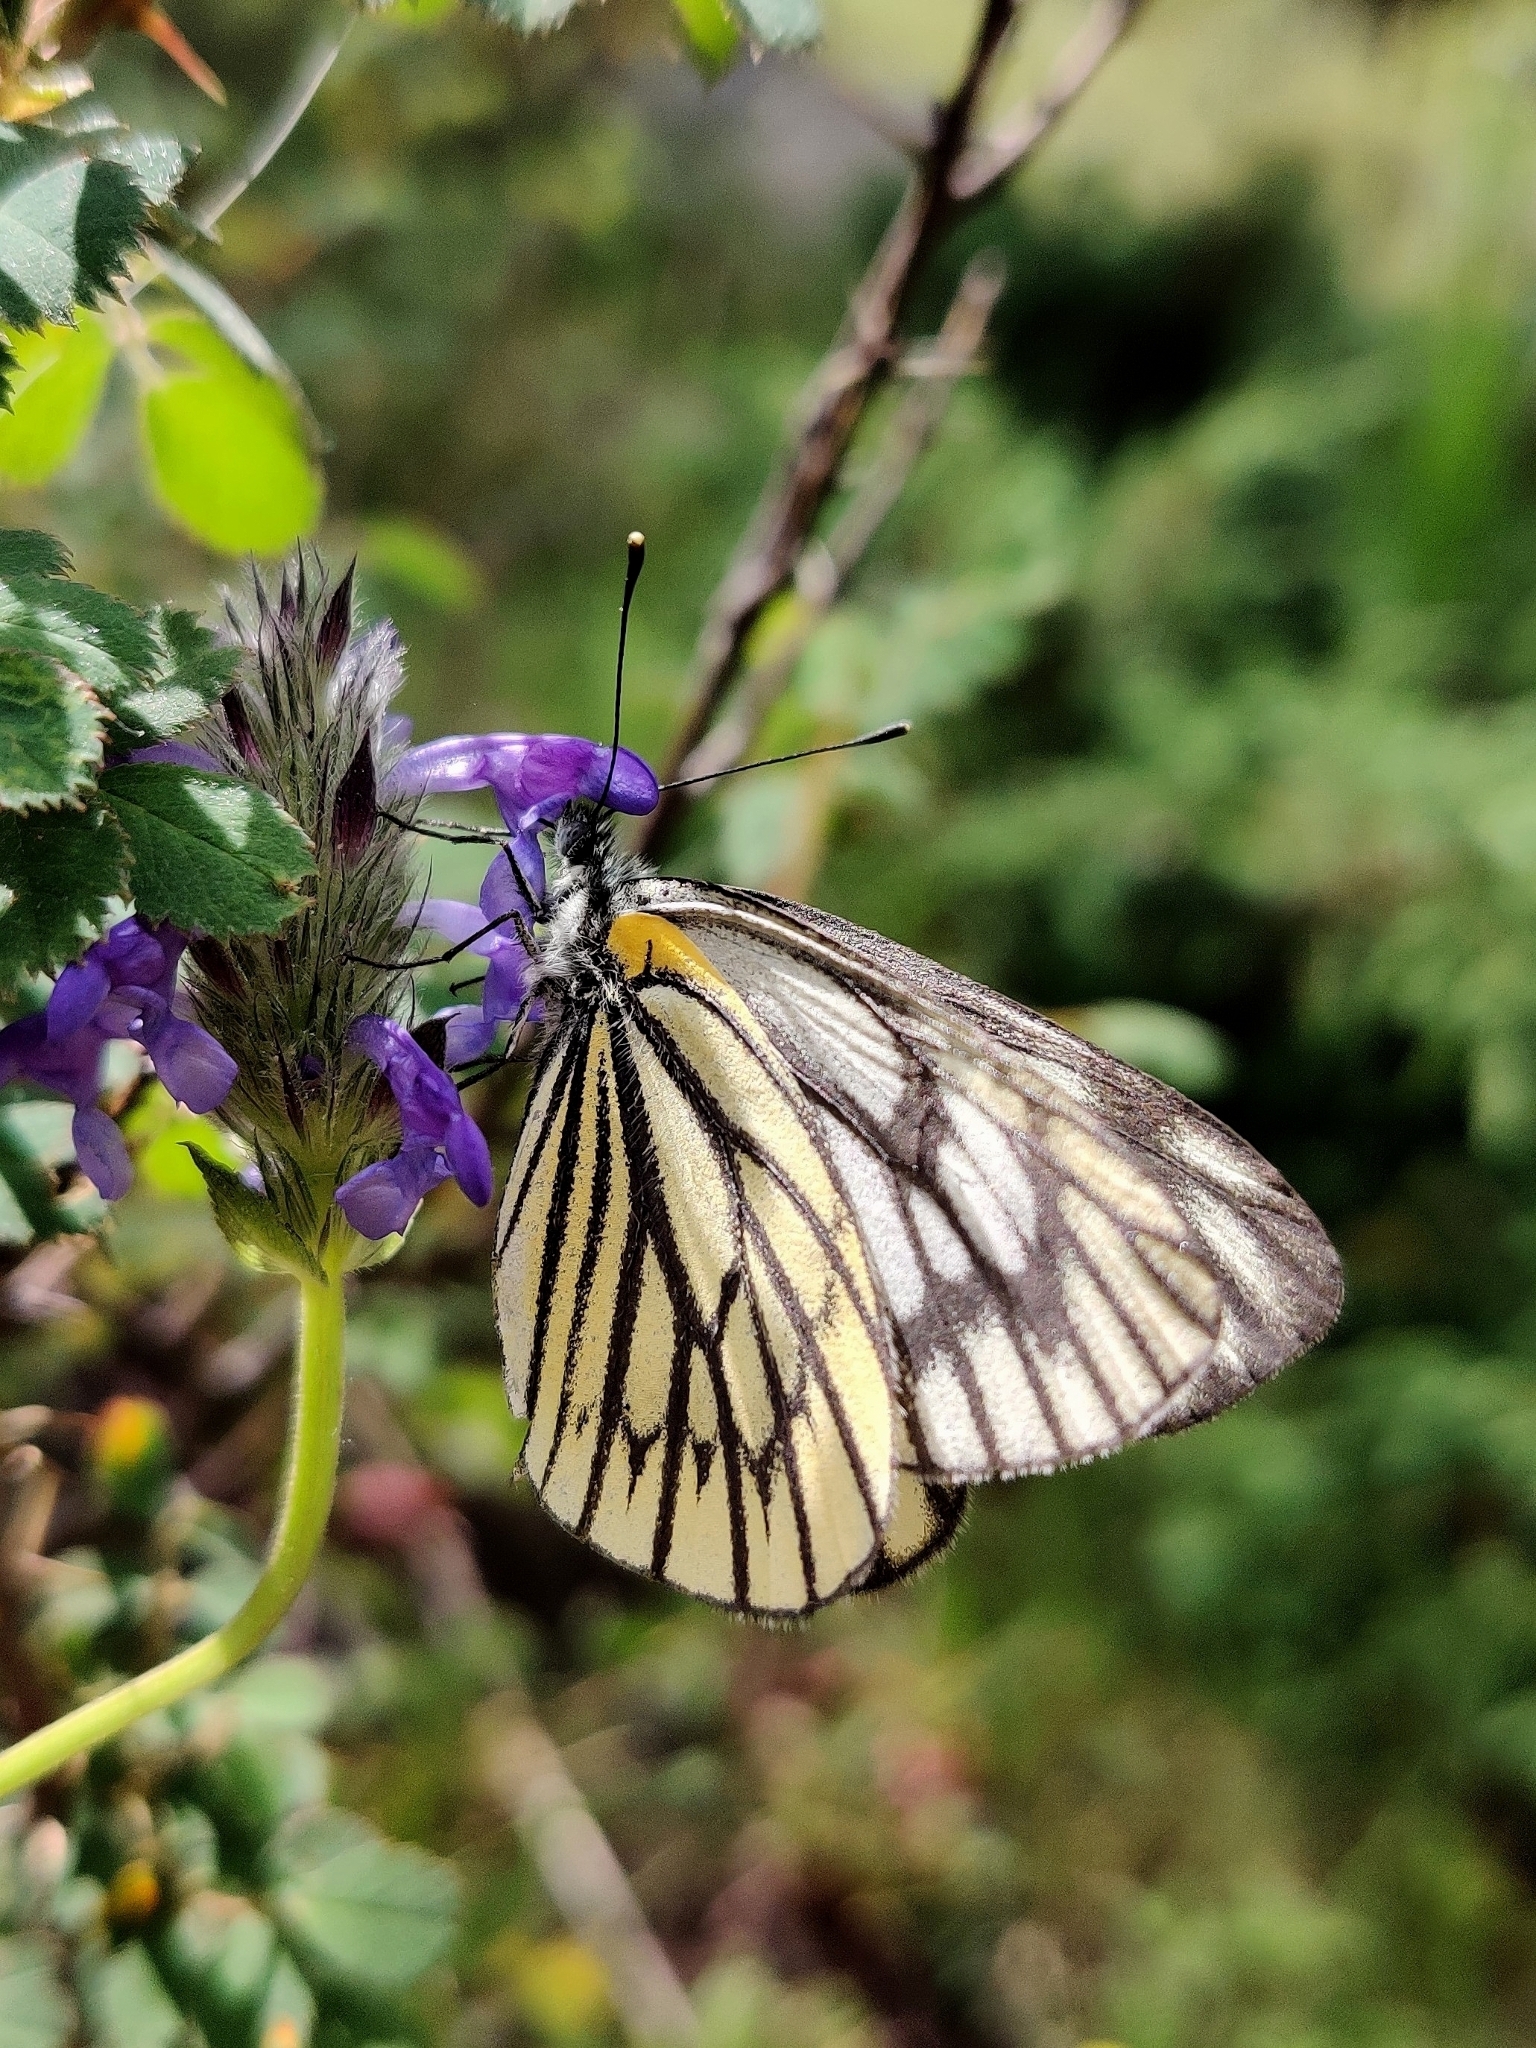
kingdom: Animalia
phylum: Arthropoda
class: Insecta
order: Lepidoptera
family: Pieridae
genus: Aporia
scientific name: Aporia nabellica
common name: Dusky blackvein
